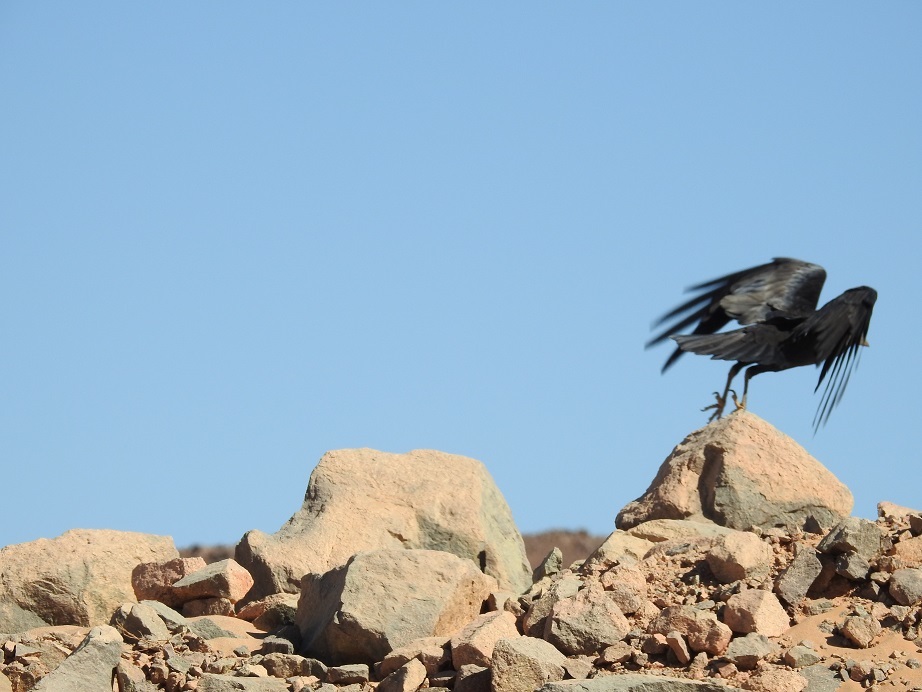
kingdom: Animalia
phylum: Chordata
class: Aves
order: Passeriformes
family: Corvidae
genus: Corvus
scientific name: Corvus ruficollis
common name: Brown-necked raven
